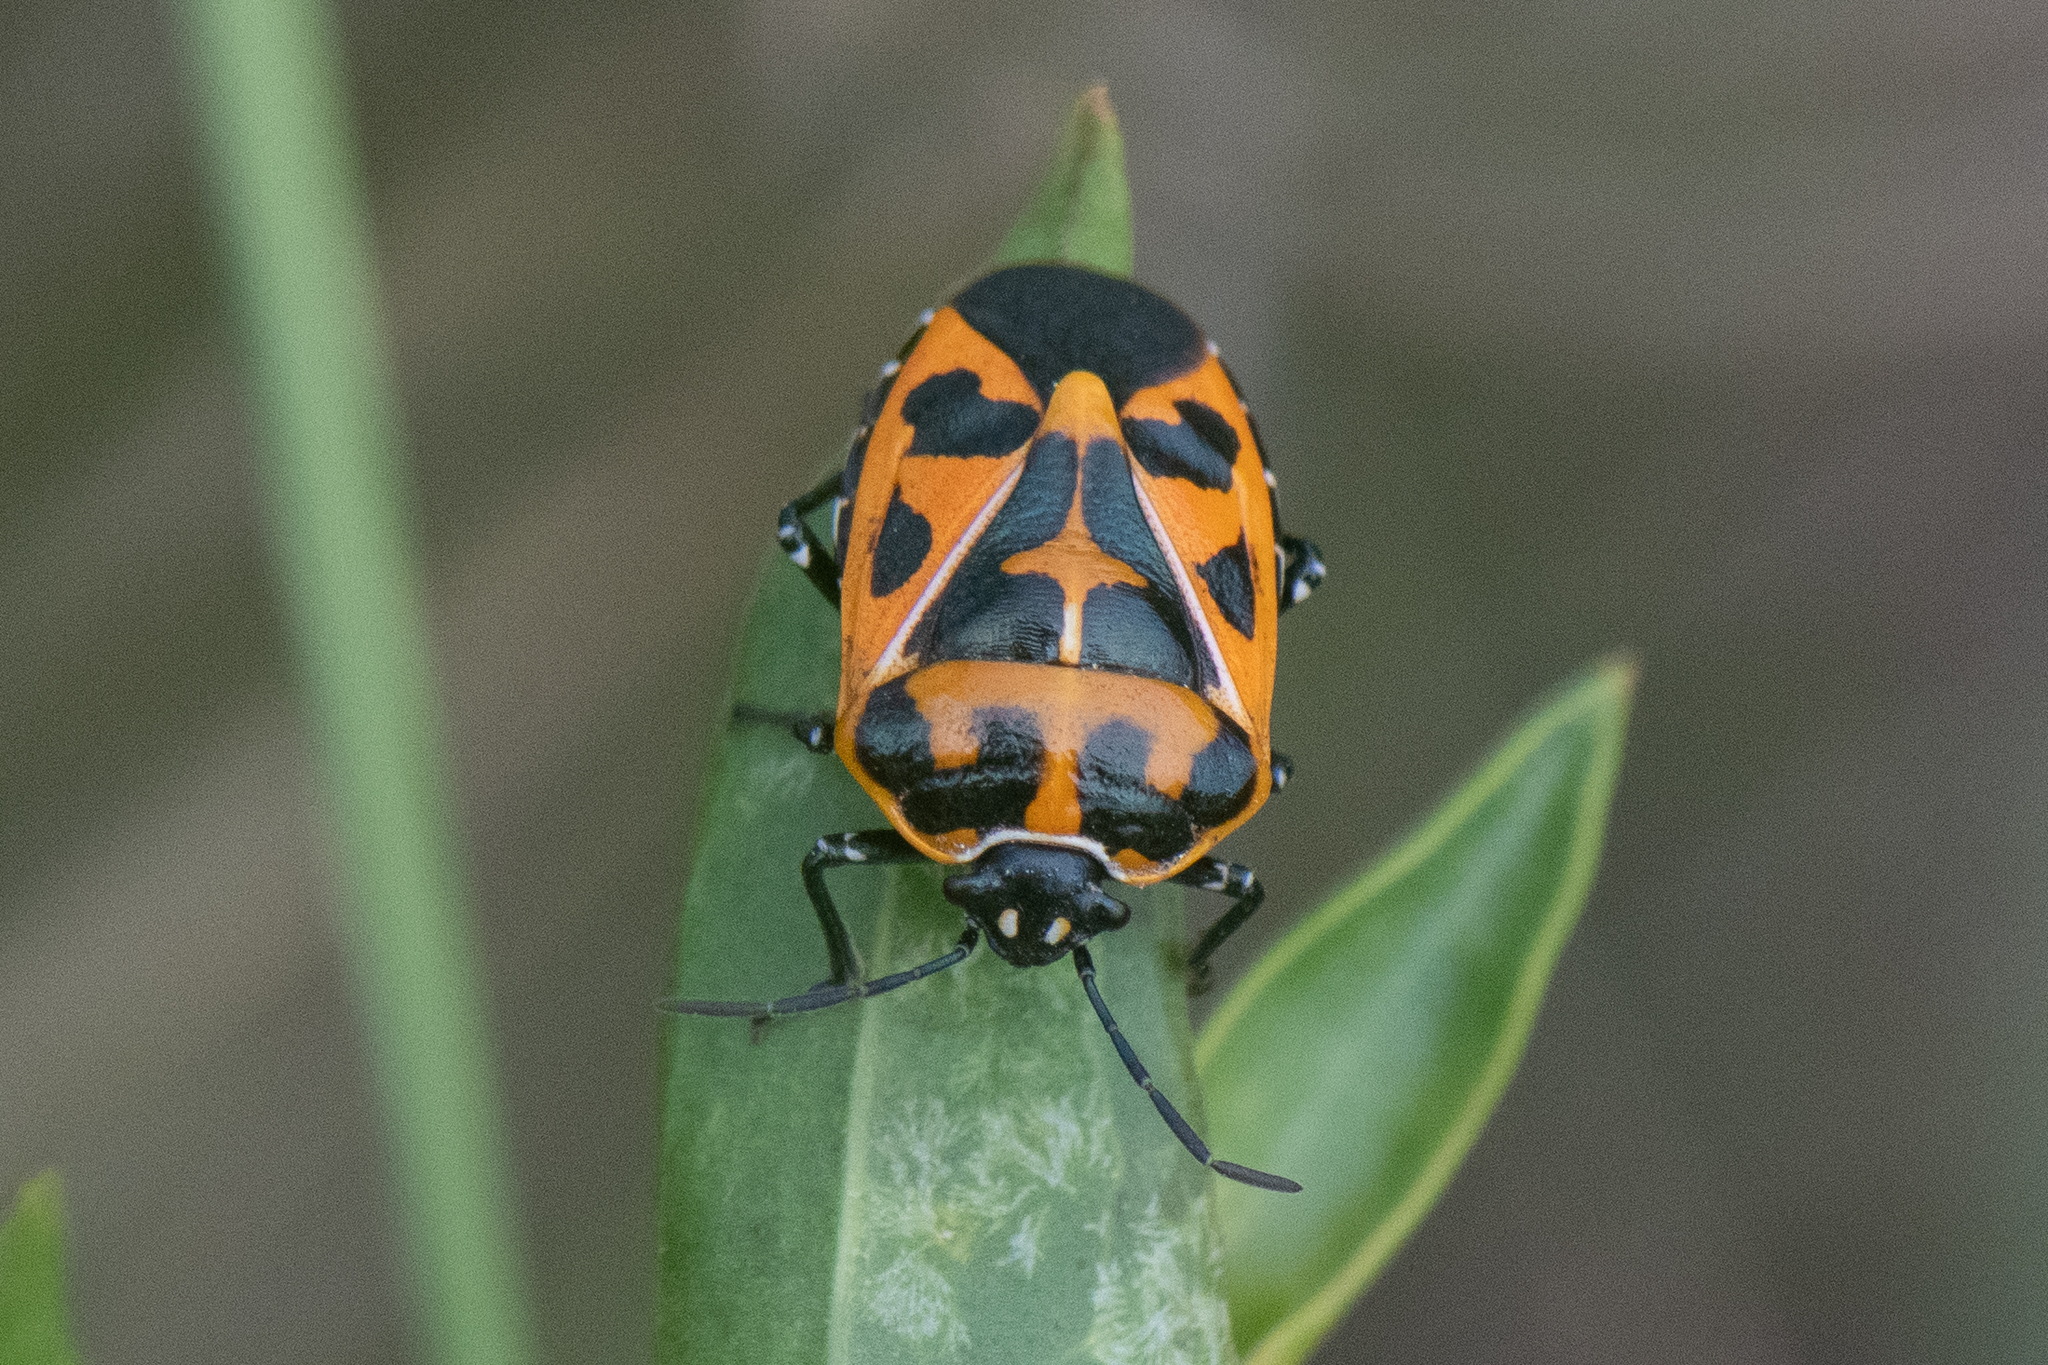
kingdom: Animalia
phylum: Arthropoda
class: Insecta
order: Hemiptera
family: Pentatomidae
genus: Murgantia
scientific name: Murgantia histrionica
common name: Harlequin bug
